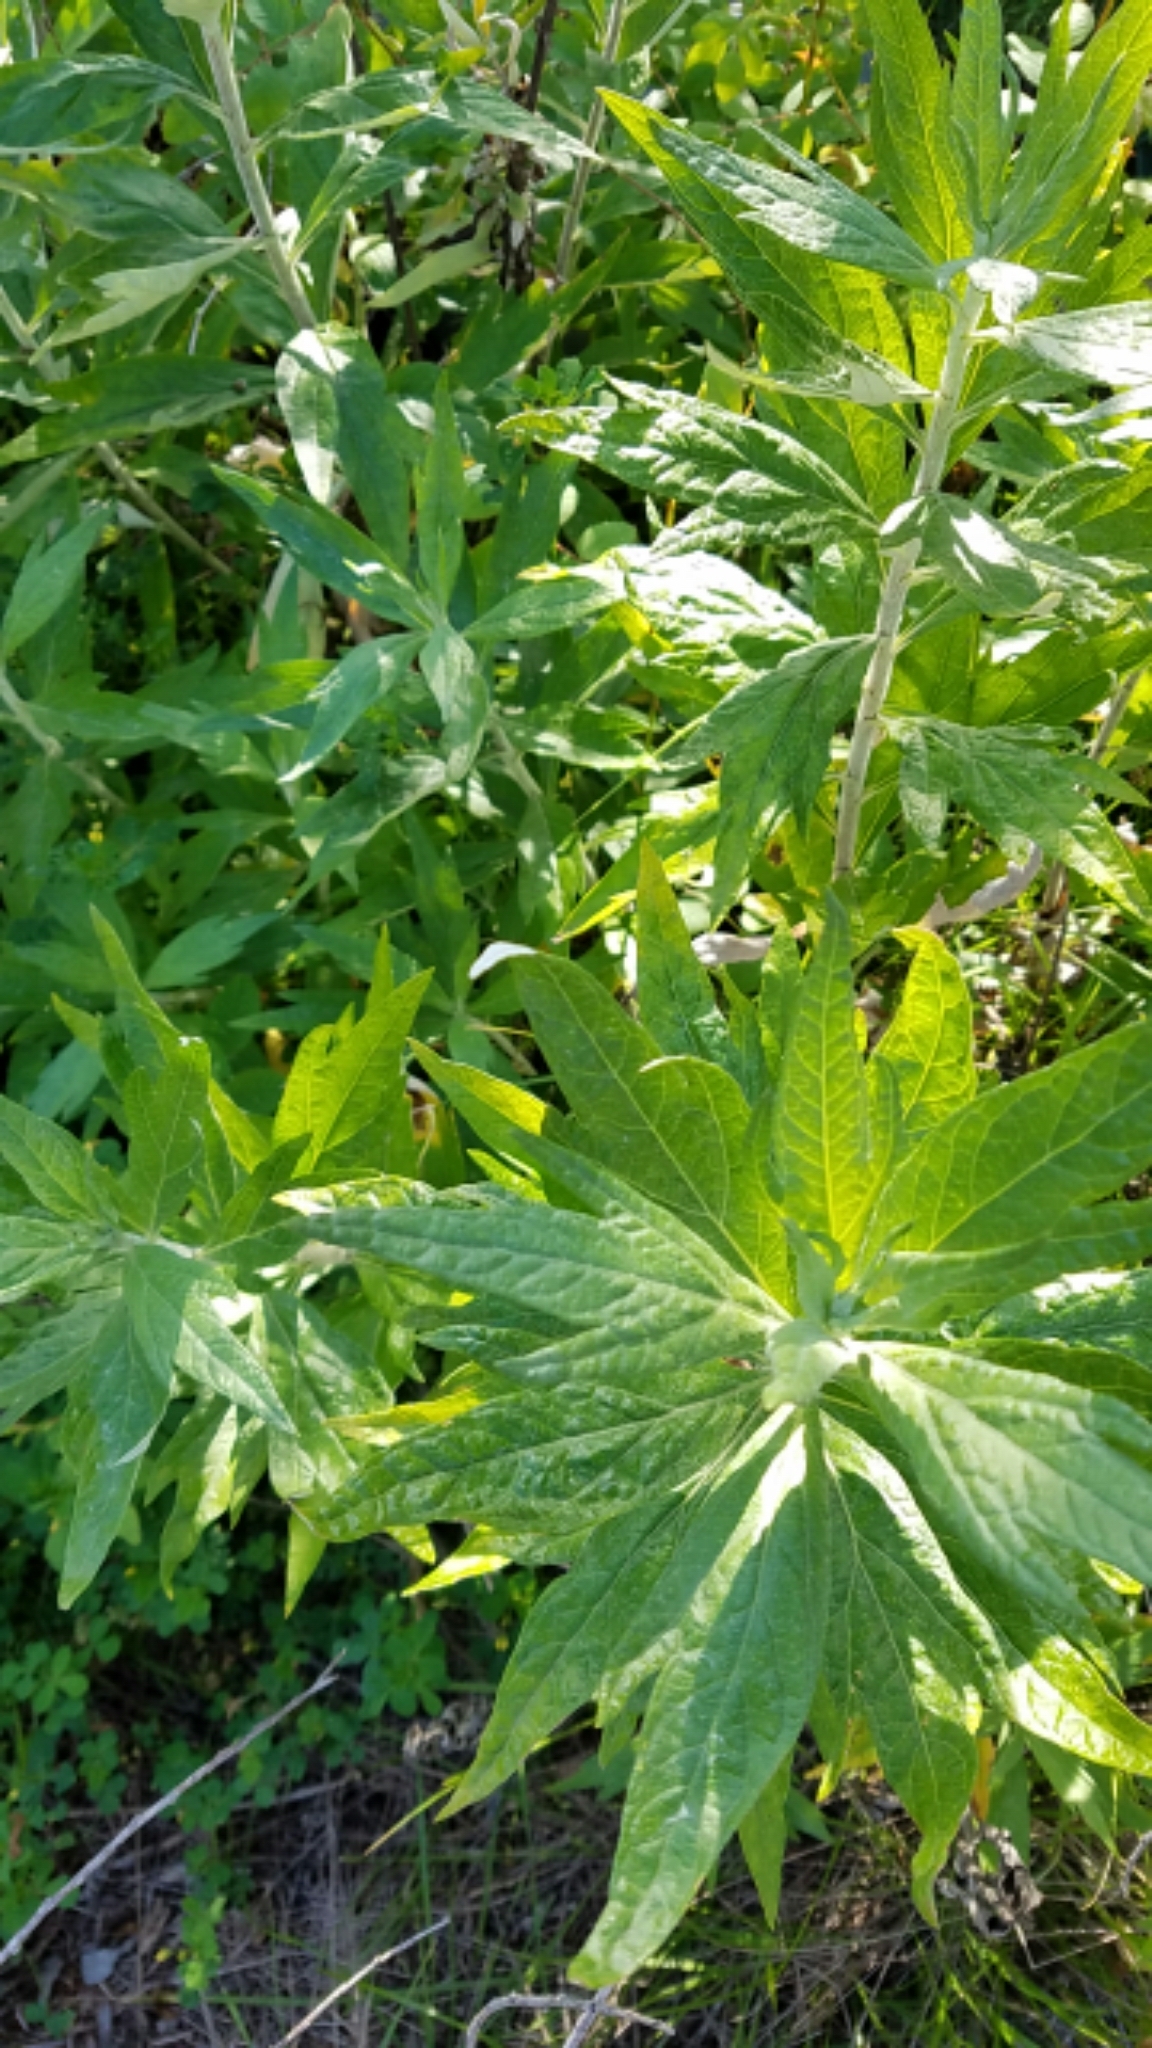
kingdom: Plantae
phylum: Tracheophyta
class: Magnoliopsida
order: Asterales
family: Asteraceae
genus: Artemisia
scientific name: Artemisia douglasiana
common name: Northwest mugwort
